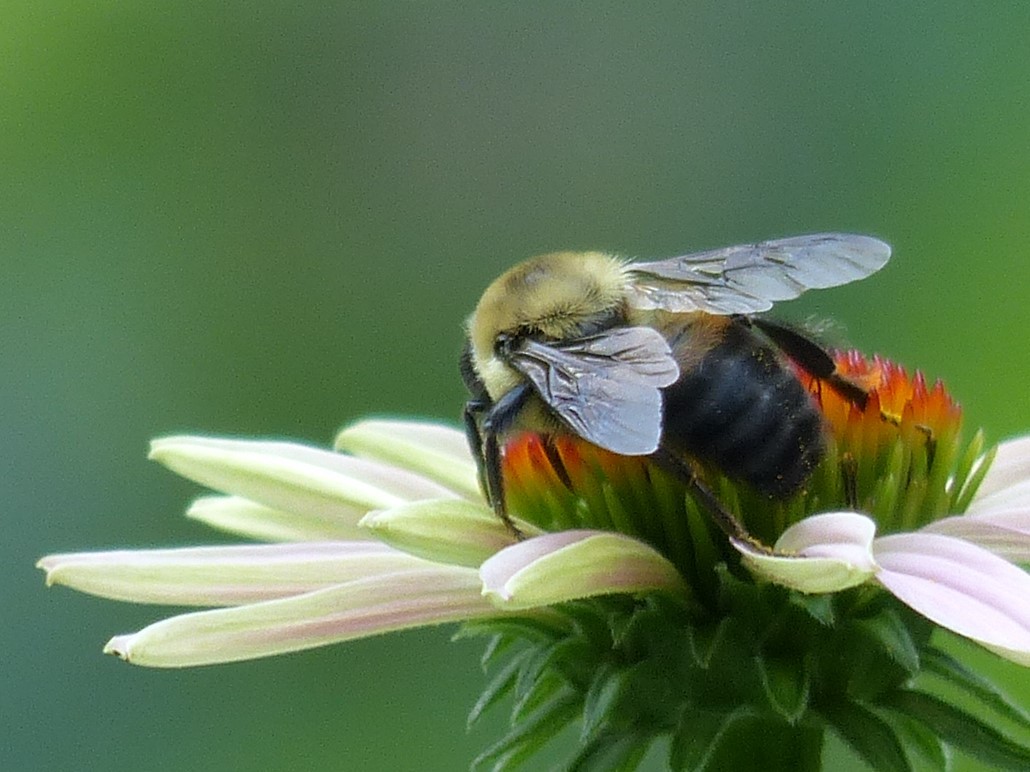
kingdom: Animalia
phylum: Arthropoda
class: Insecta
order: Hymenoptera
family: Apidae
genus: Bombus
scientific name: Bombus griseocollis
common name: Brown-belted bumble bee
